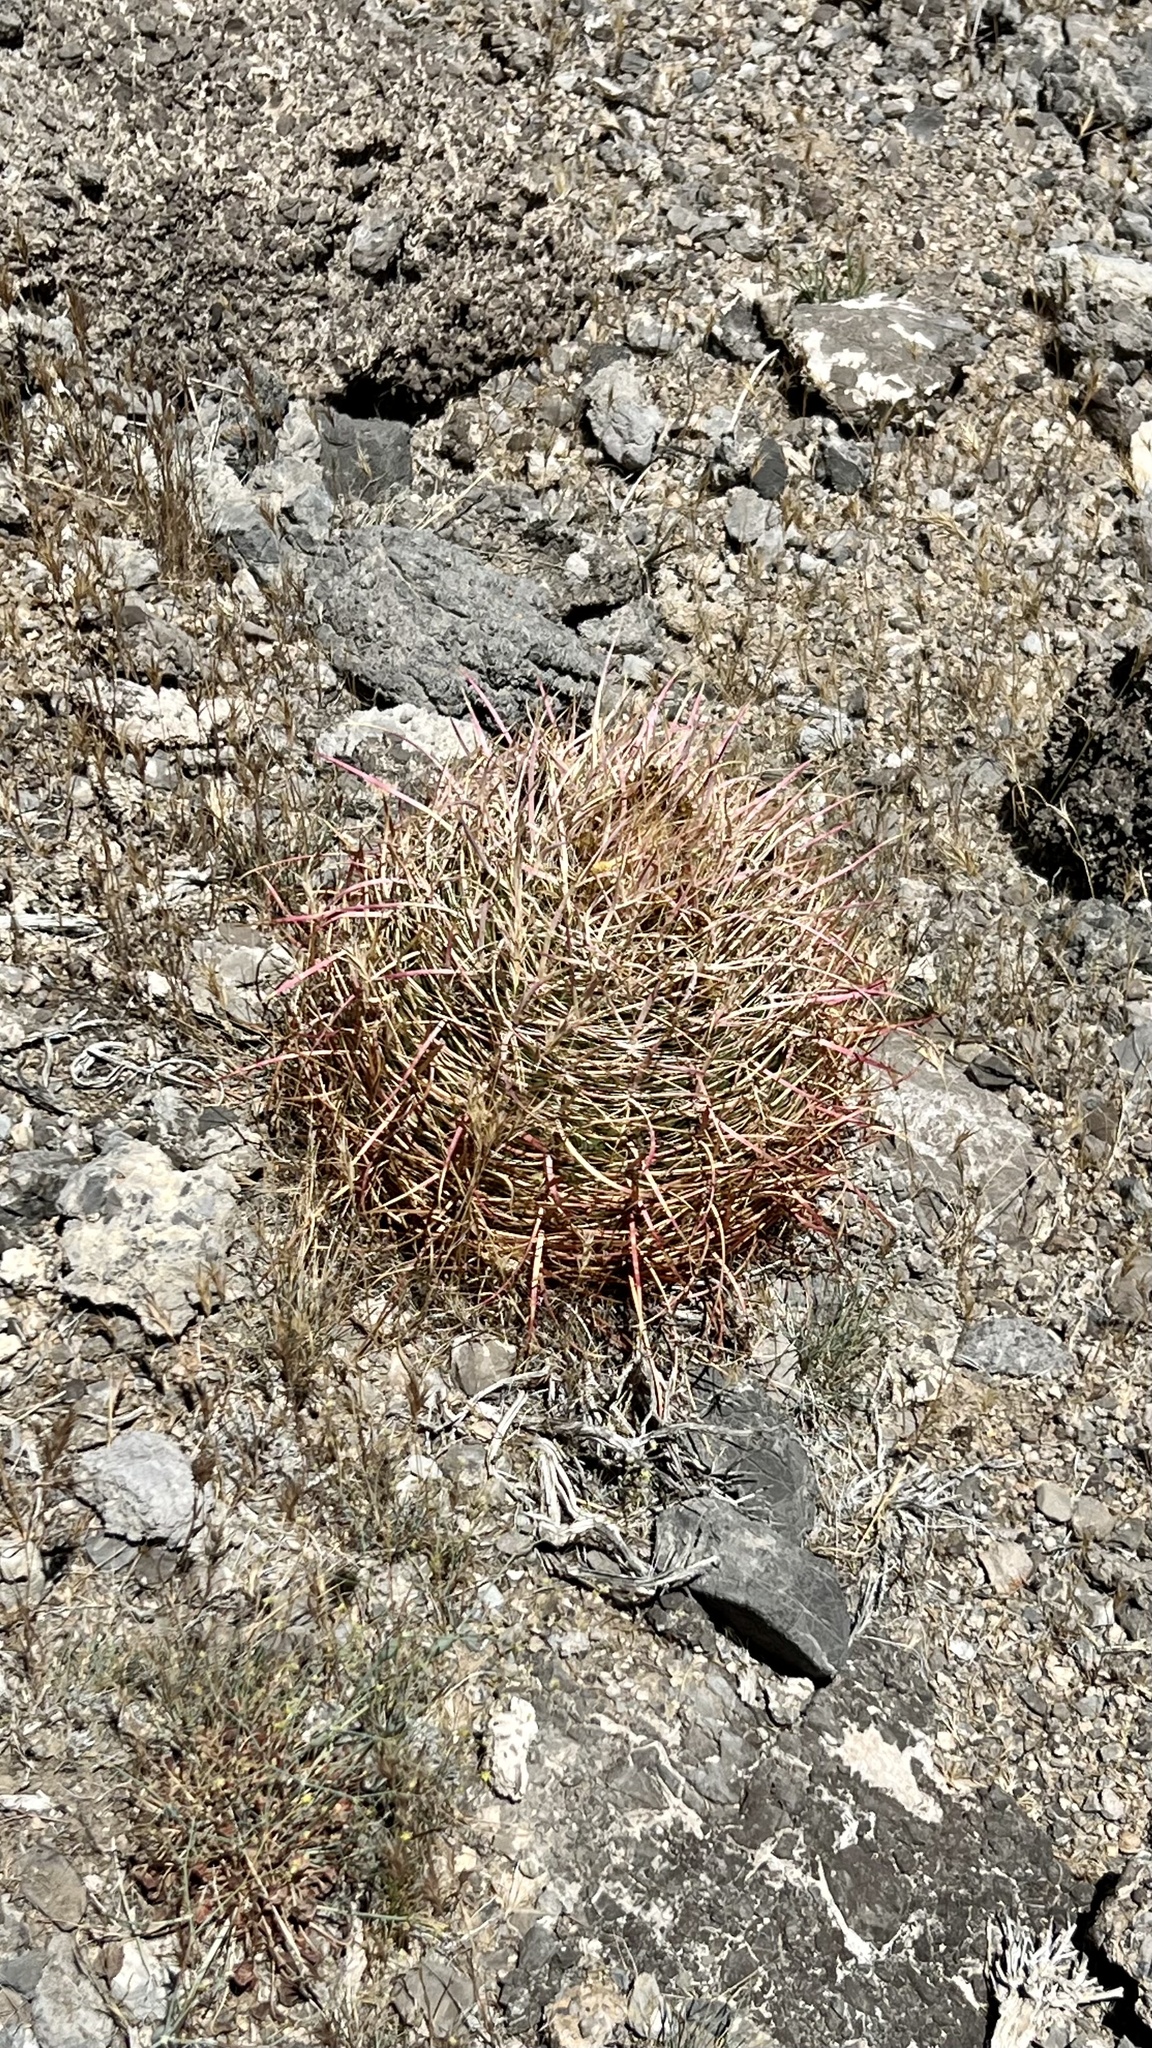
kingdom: Plantae
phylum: Tracheophyta
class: Magnoliopsida
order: Caryophyllales
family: Cactaceae
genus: Ferocactus
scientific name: Ferocactus cylindraceus
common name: California barrel cactus
